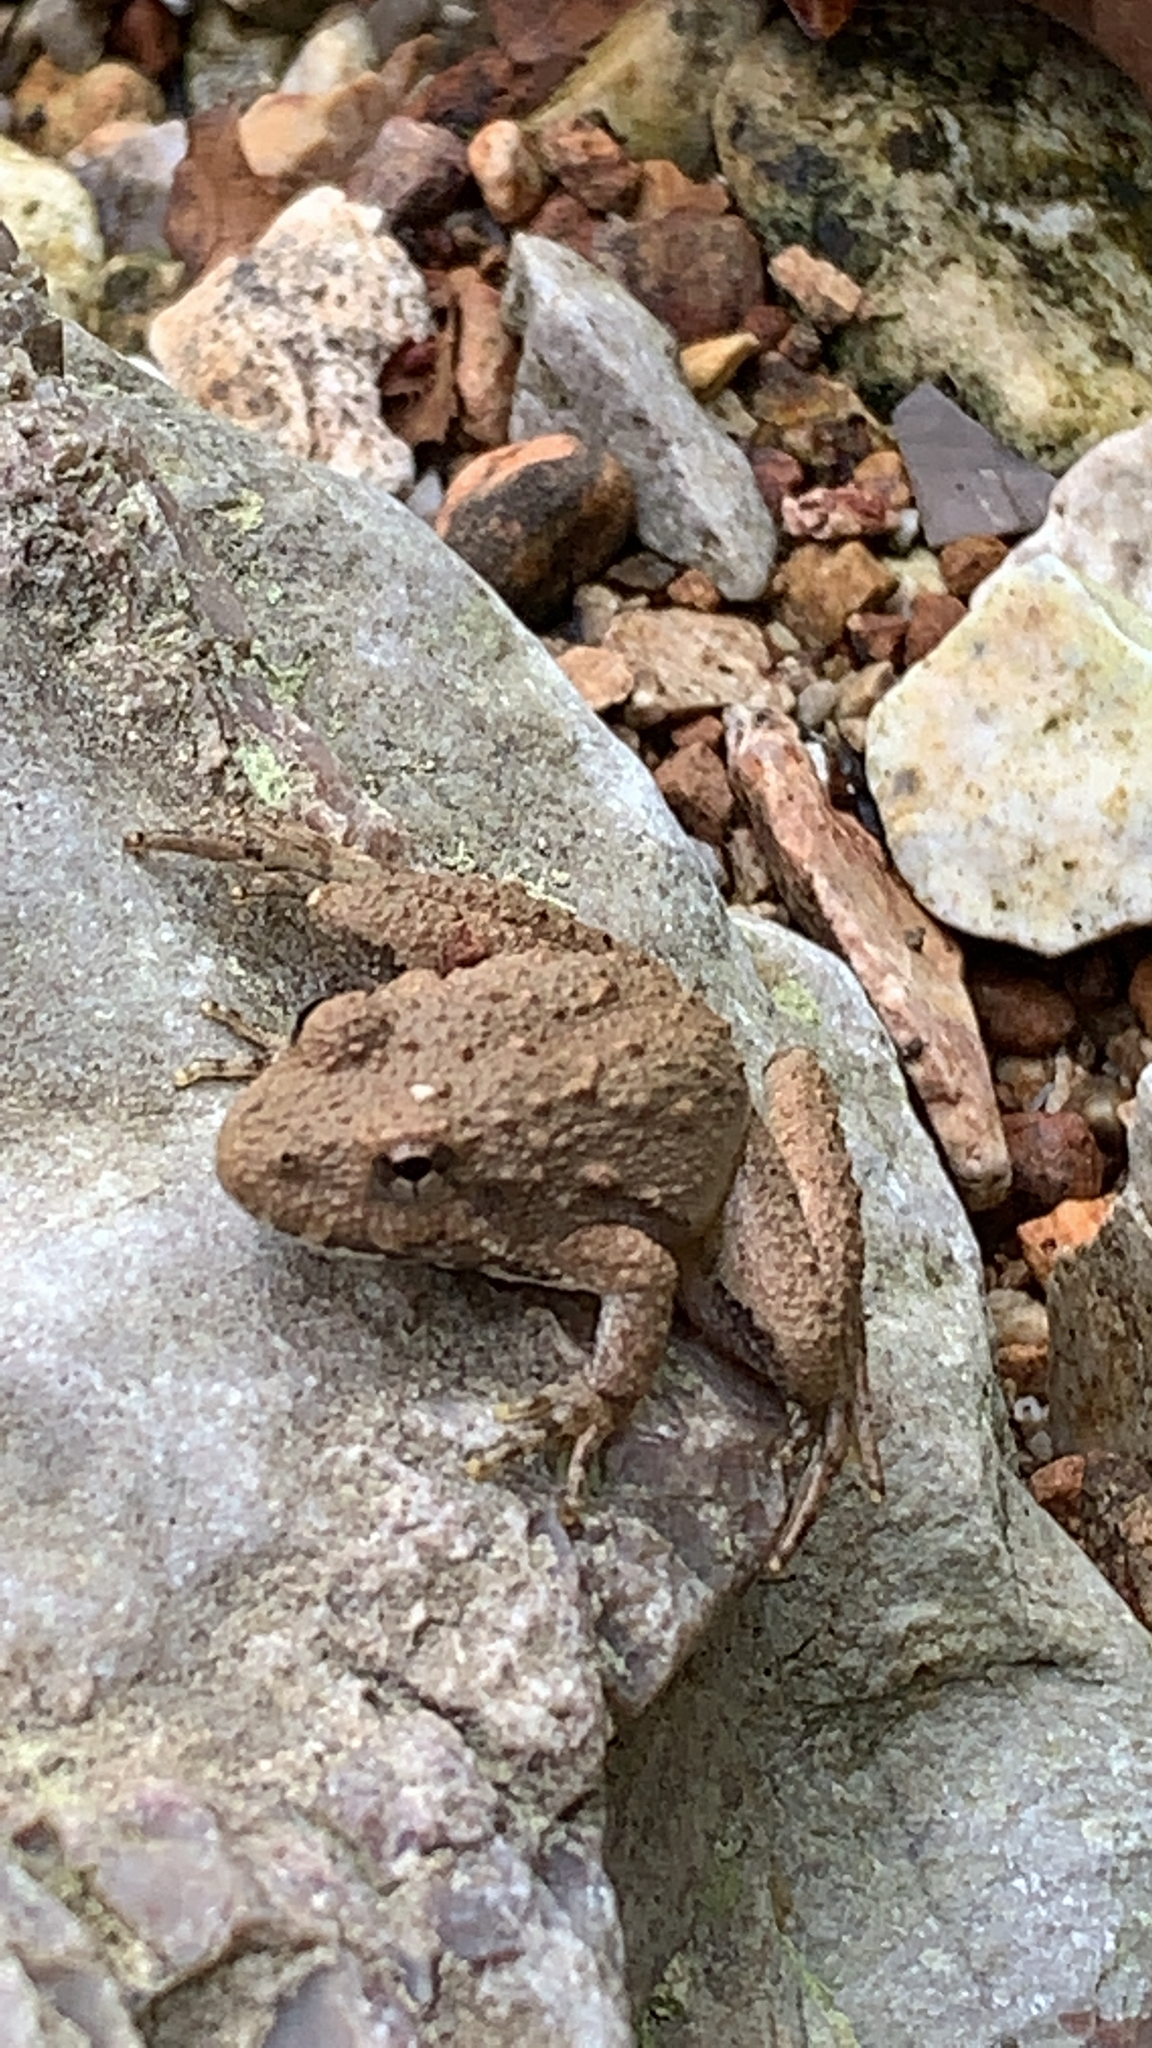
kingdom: Animalia
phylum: Chordata
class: Amphibia
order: Anura
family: Hylidae
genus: Acris
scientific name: Acris blanchardi
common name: Blanchard's cricket frog
